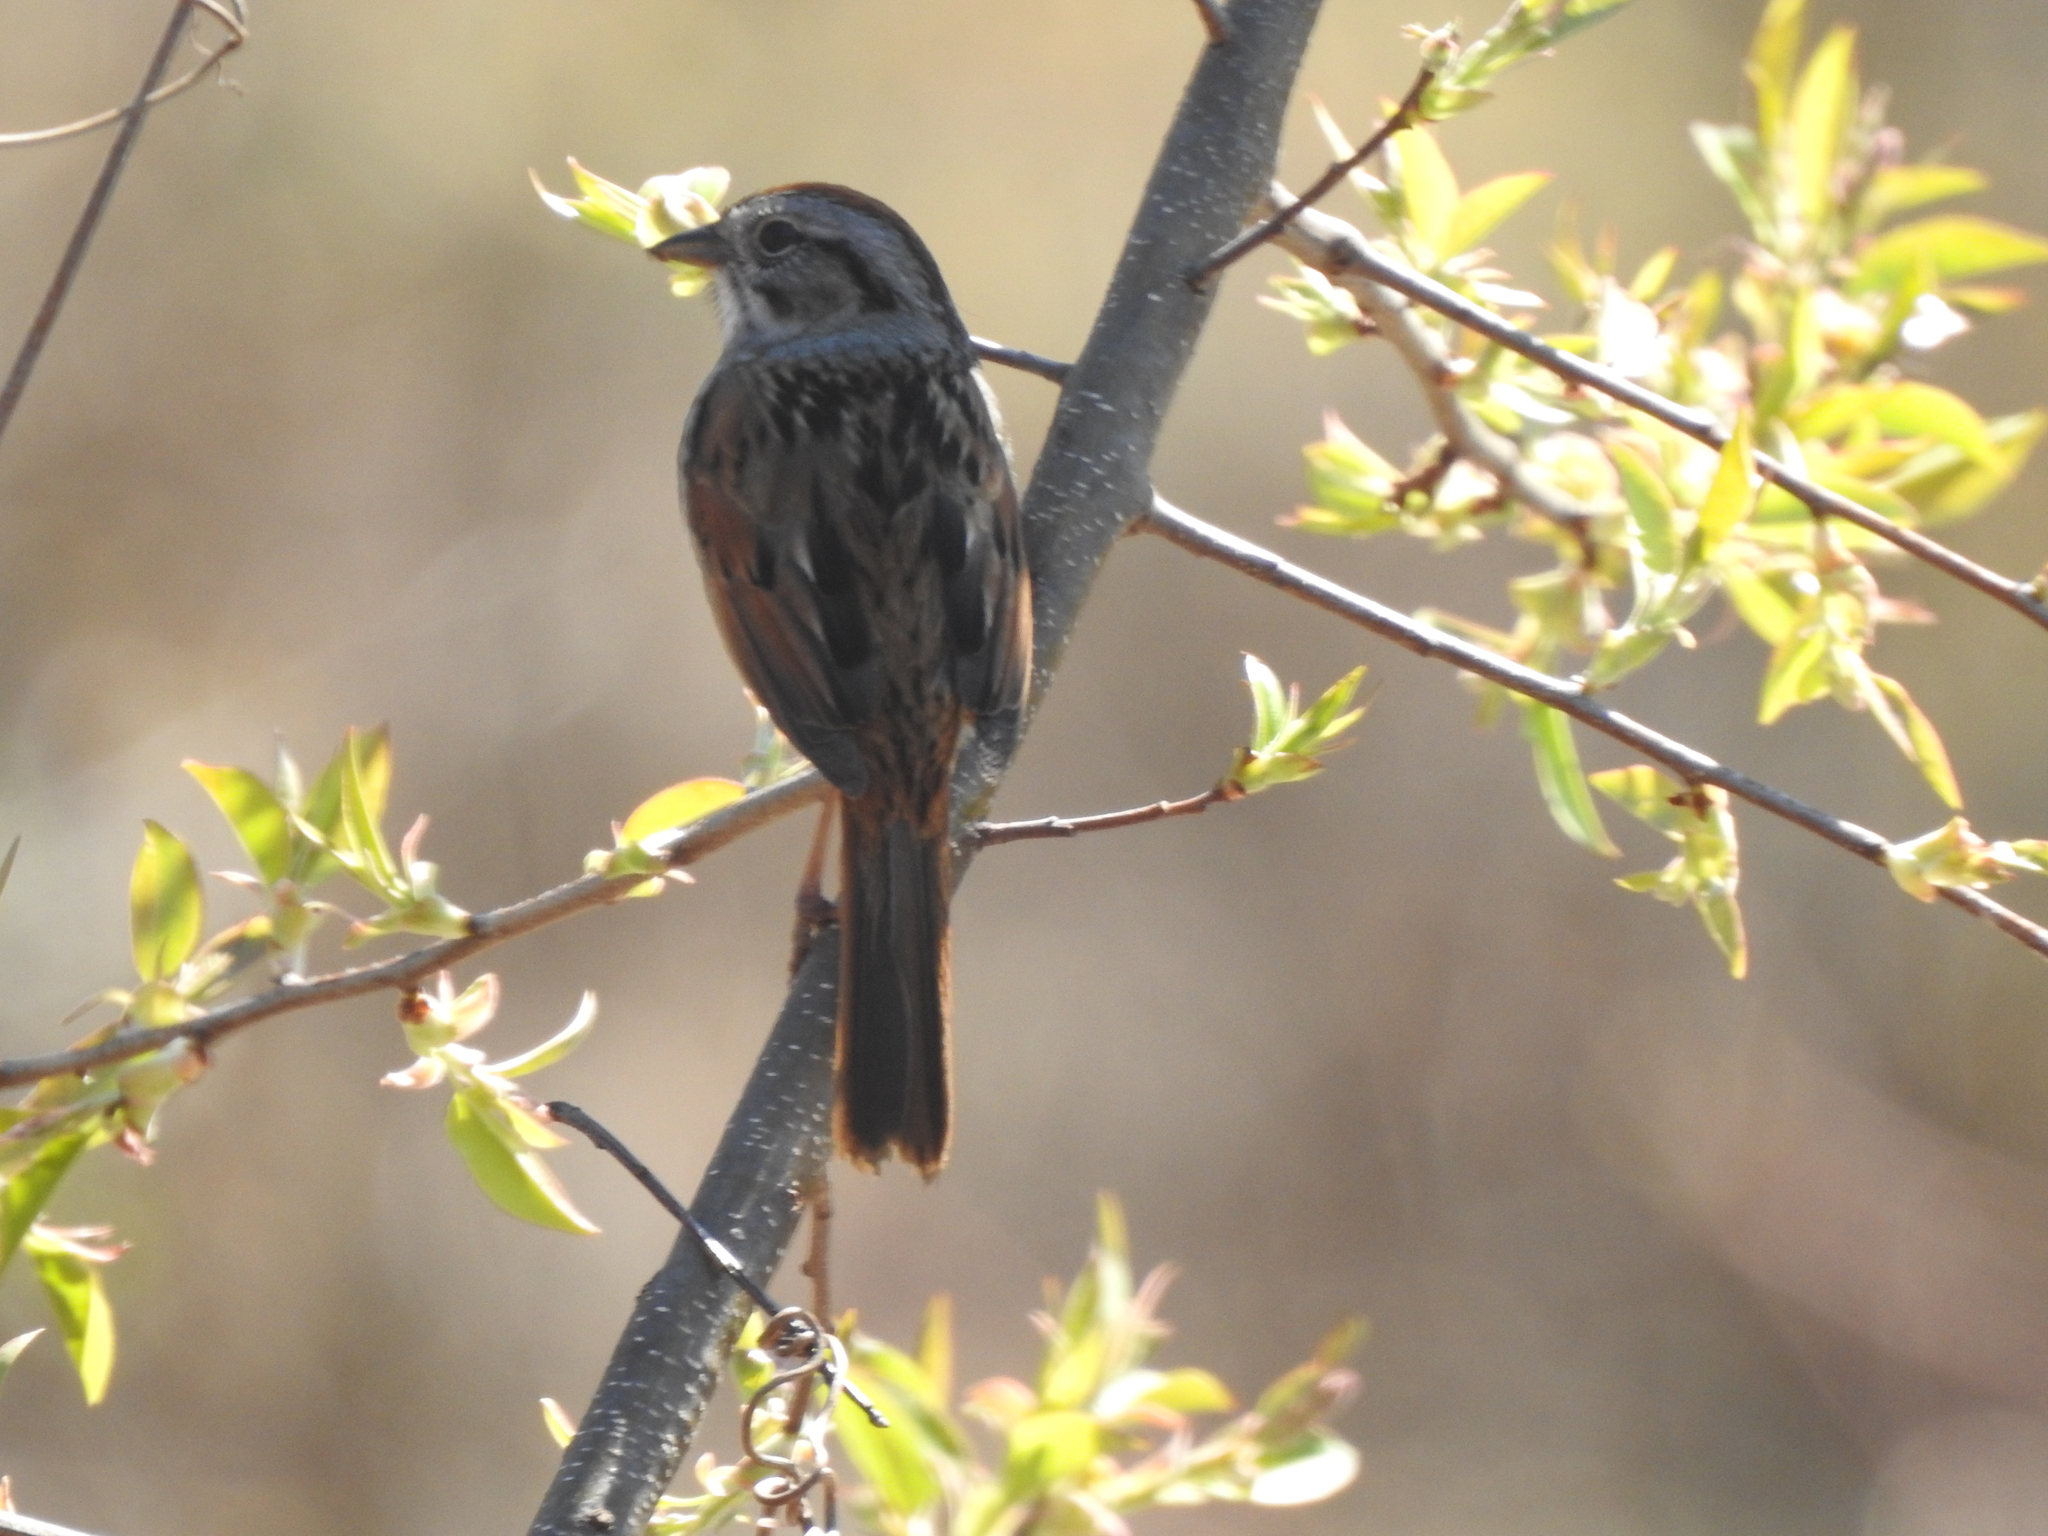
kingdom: Animalia
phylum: Chordata
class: Aves
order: Passeriformes
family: Passerellidae
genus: Melospiza
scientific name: Melospiza georgiana
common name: Swamp sparrow
